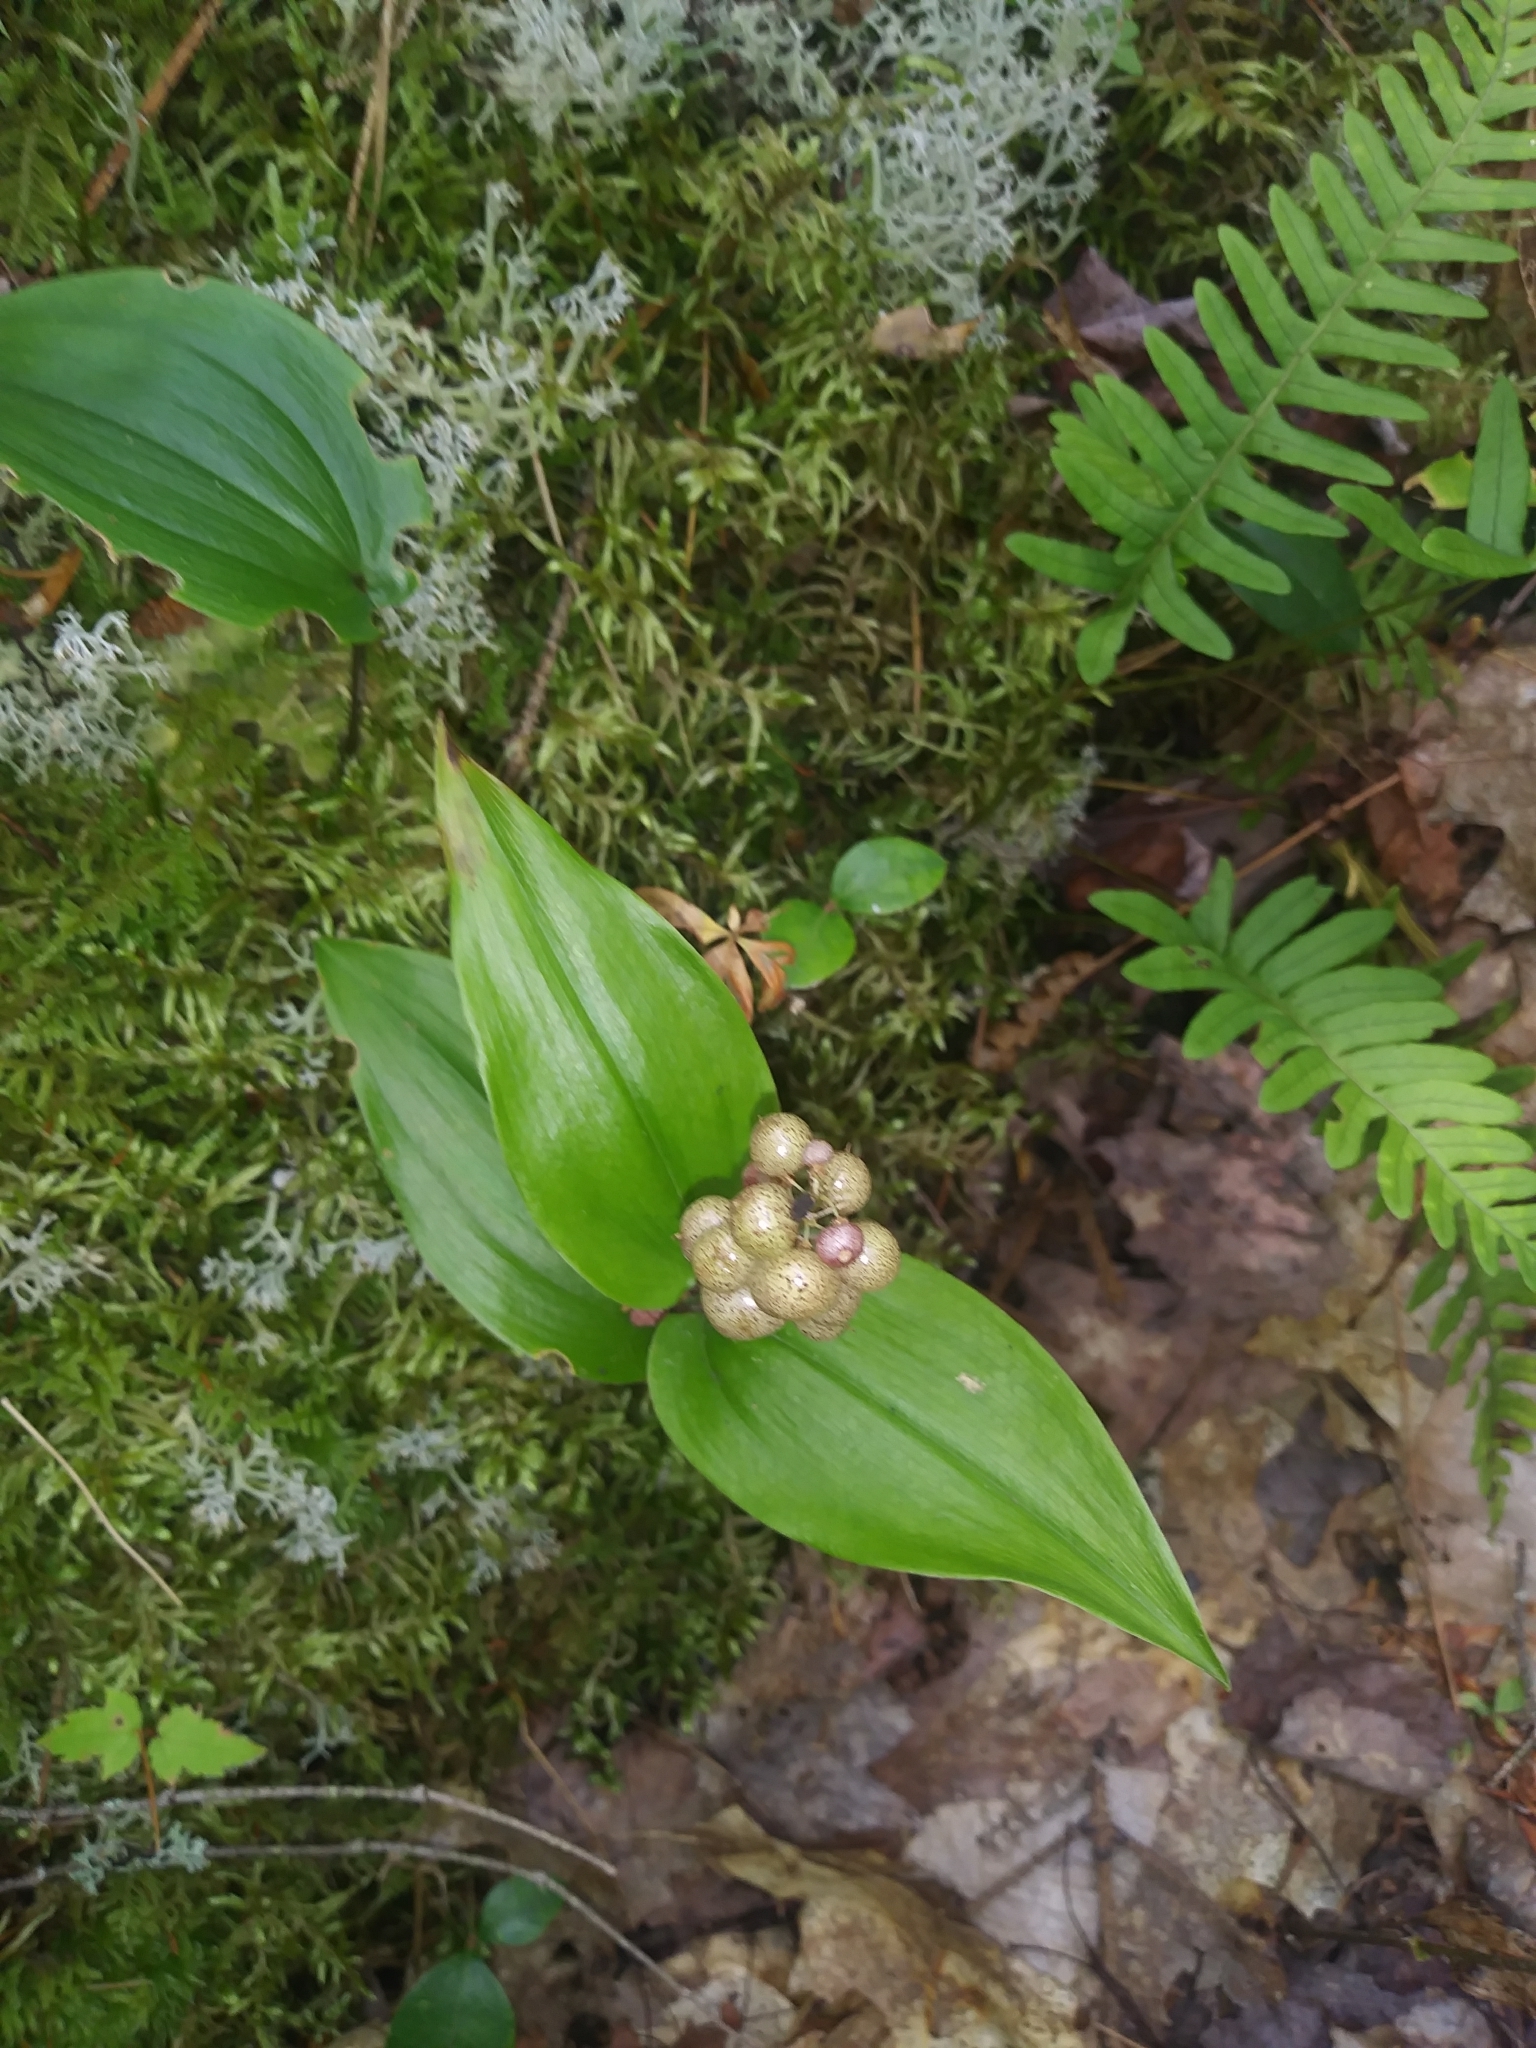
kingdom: Plantae
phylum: Tracheophyta
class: Liliopsida
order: Asparagales
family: Asparagaceae
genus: Maianthemum
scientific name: Maianthemum canadense
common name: False lily-of-the-valley
